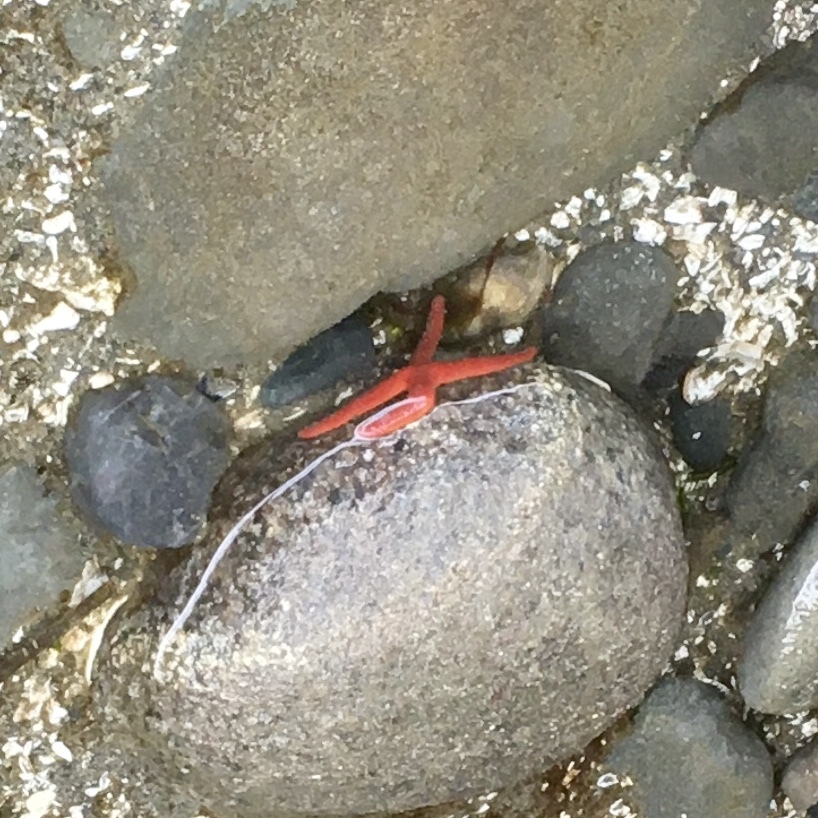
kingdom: Animalia
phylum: Echinodermata
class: Asteroidea
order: Spinulosida
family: Echinasteridae
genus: Henricia
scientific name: Henricia leviuscula
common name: Pacific blood star
